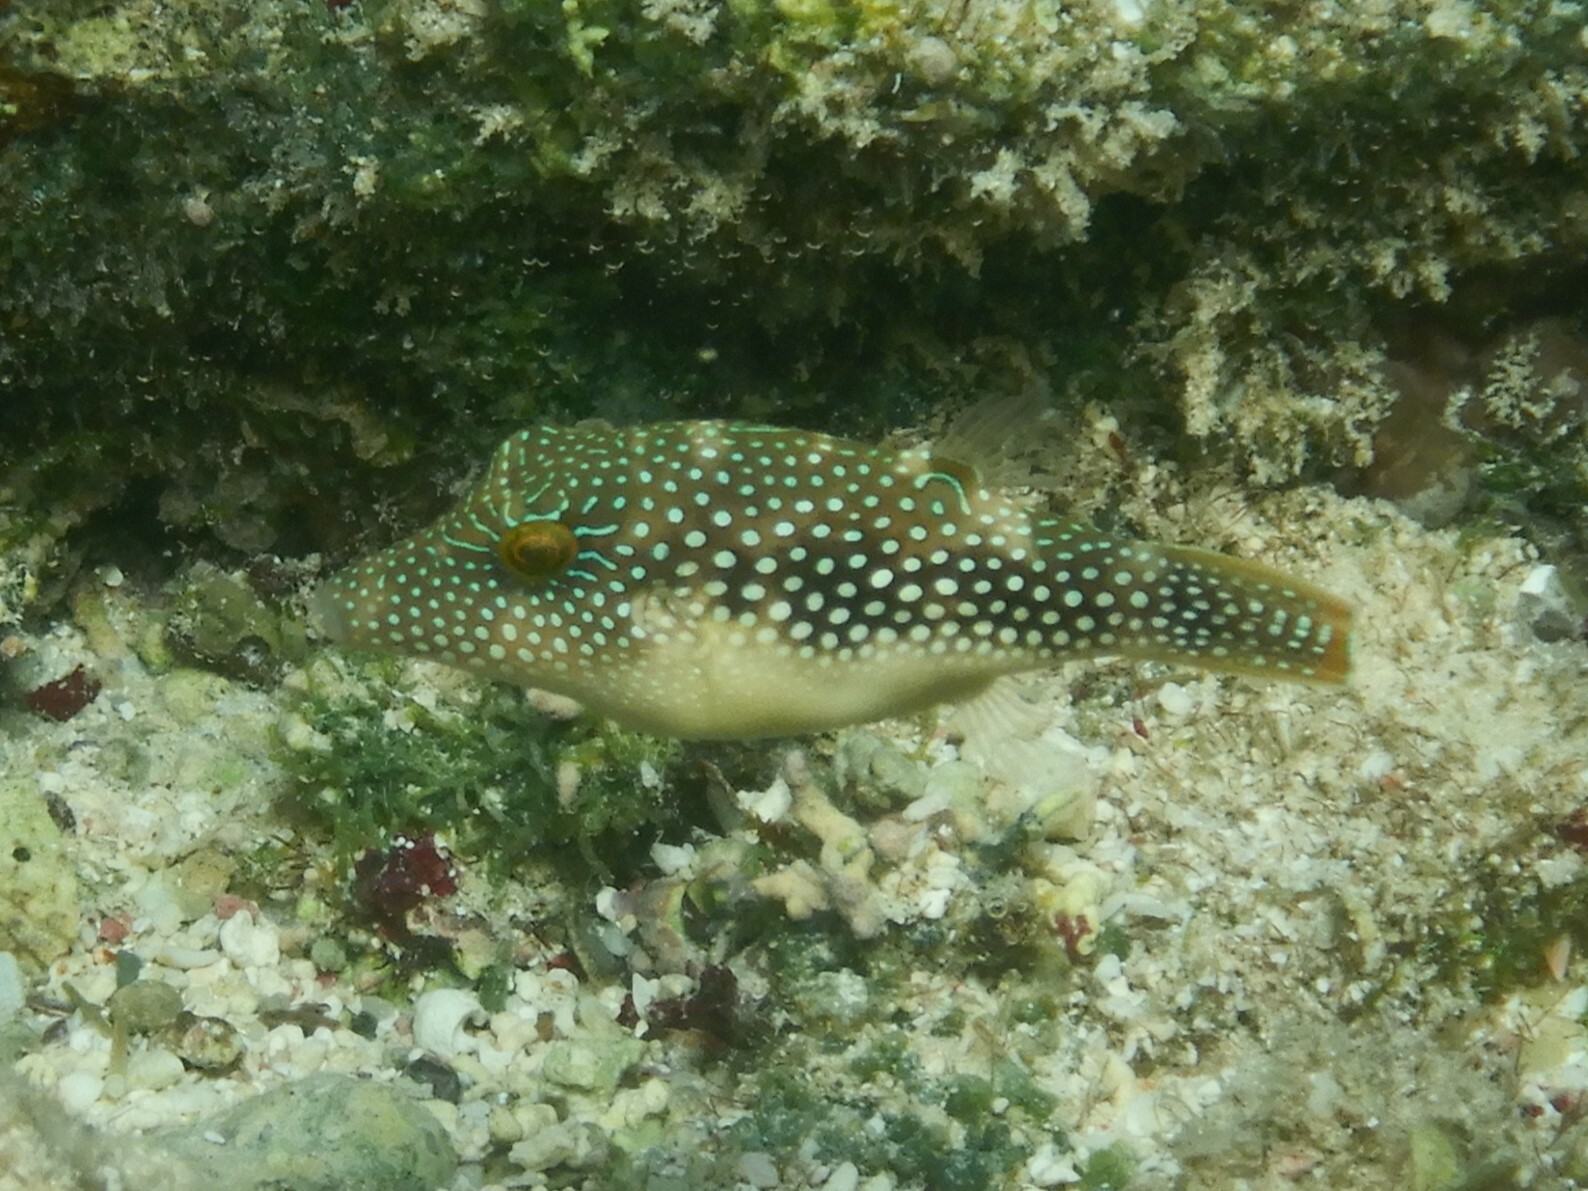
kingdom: Animalia
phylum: Chordata
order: Tetraodontiformes
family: Tetraodontidae
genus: Canthigaster
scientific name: Canthigaster margaritata
